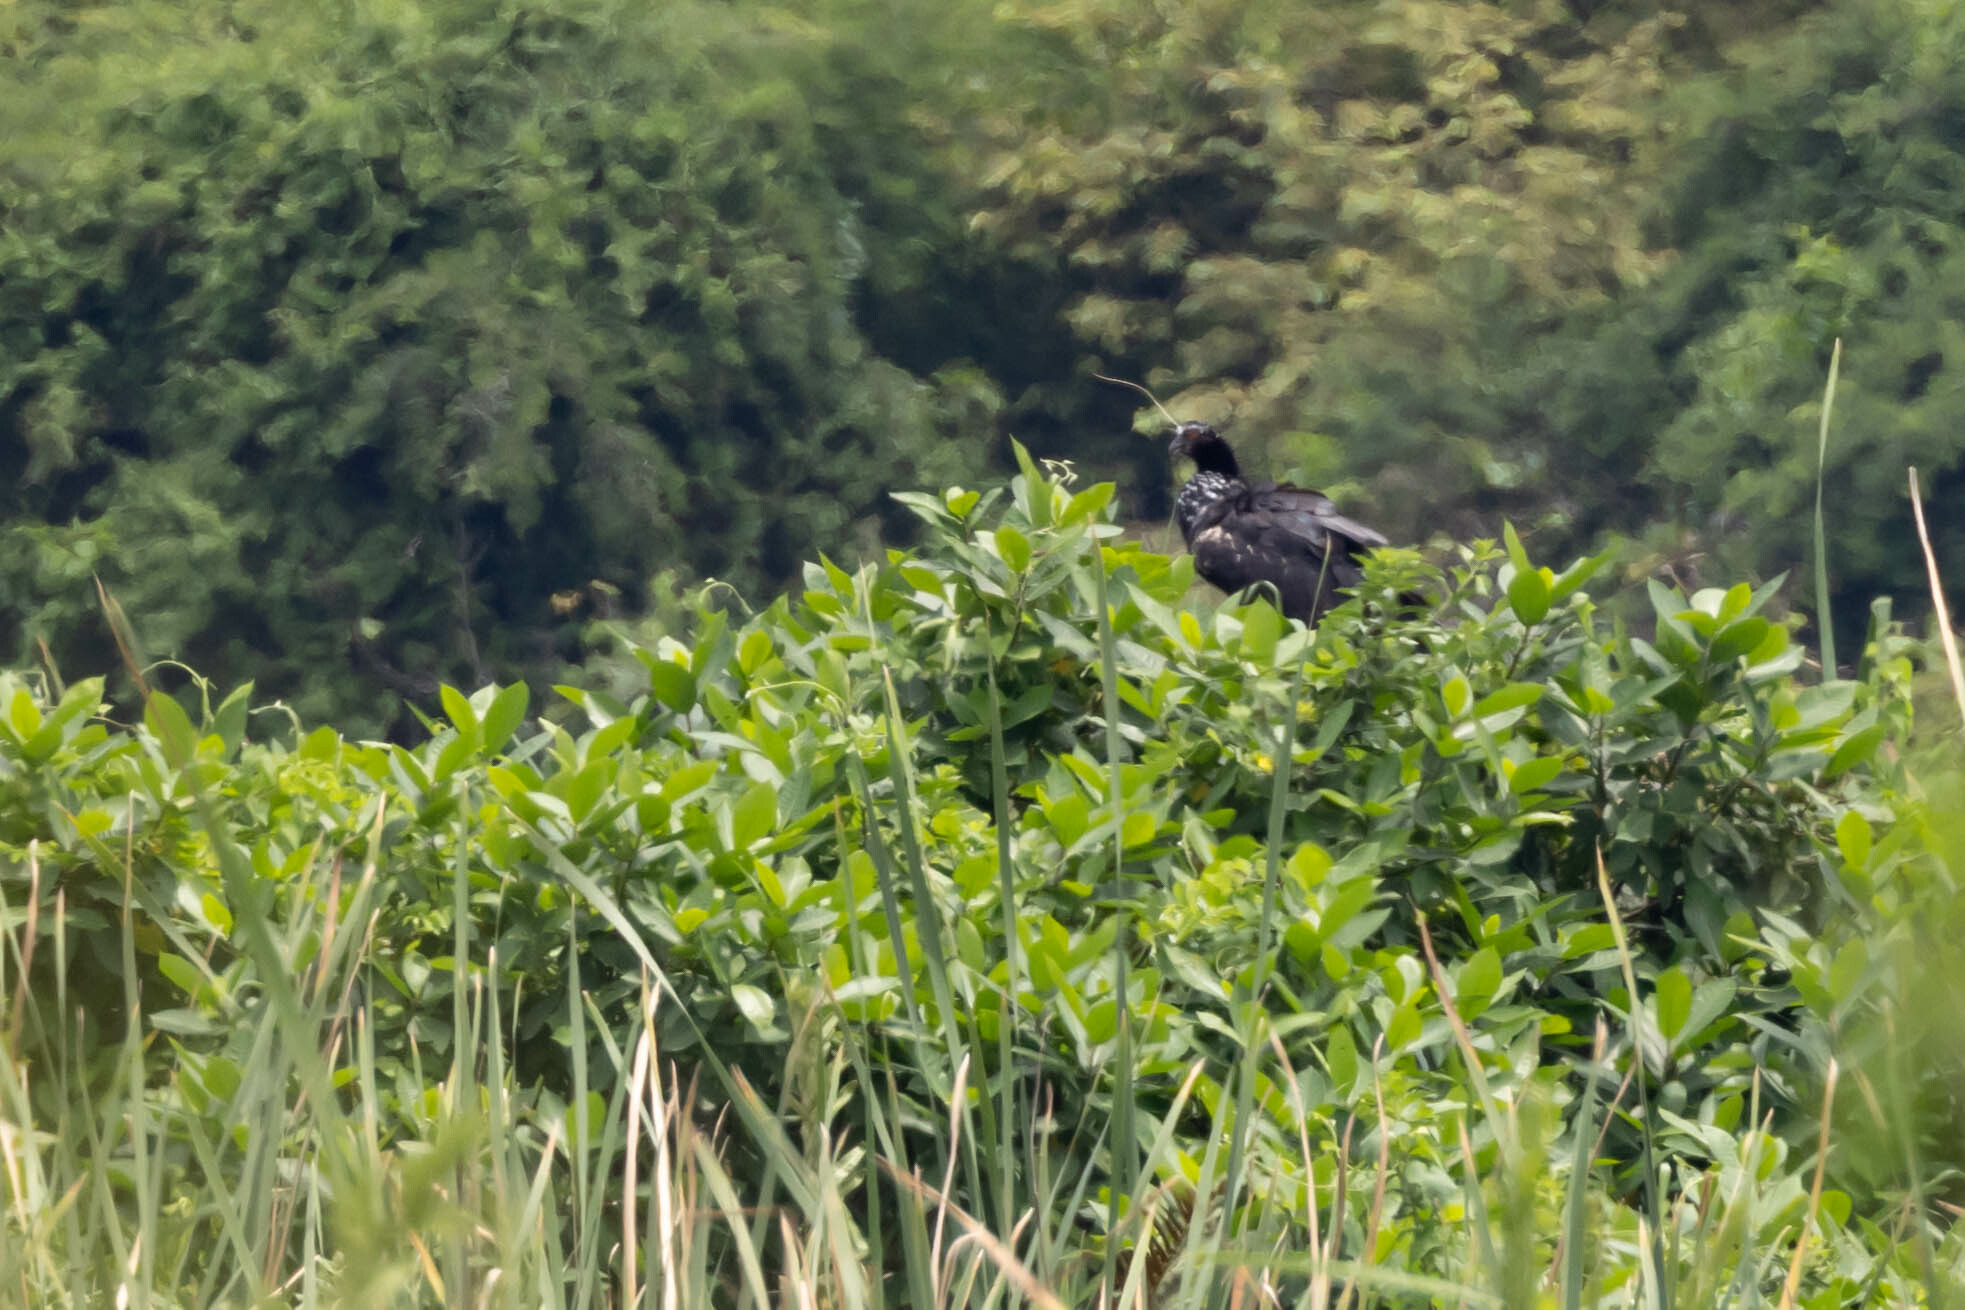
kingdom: Animalia
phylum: Chordata
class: Aves
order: Anseriformes
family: Anhimidae
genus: Anhima
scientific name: Anhima cornuta
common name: Horned screamer
